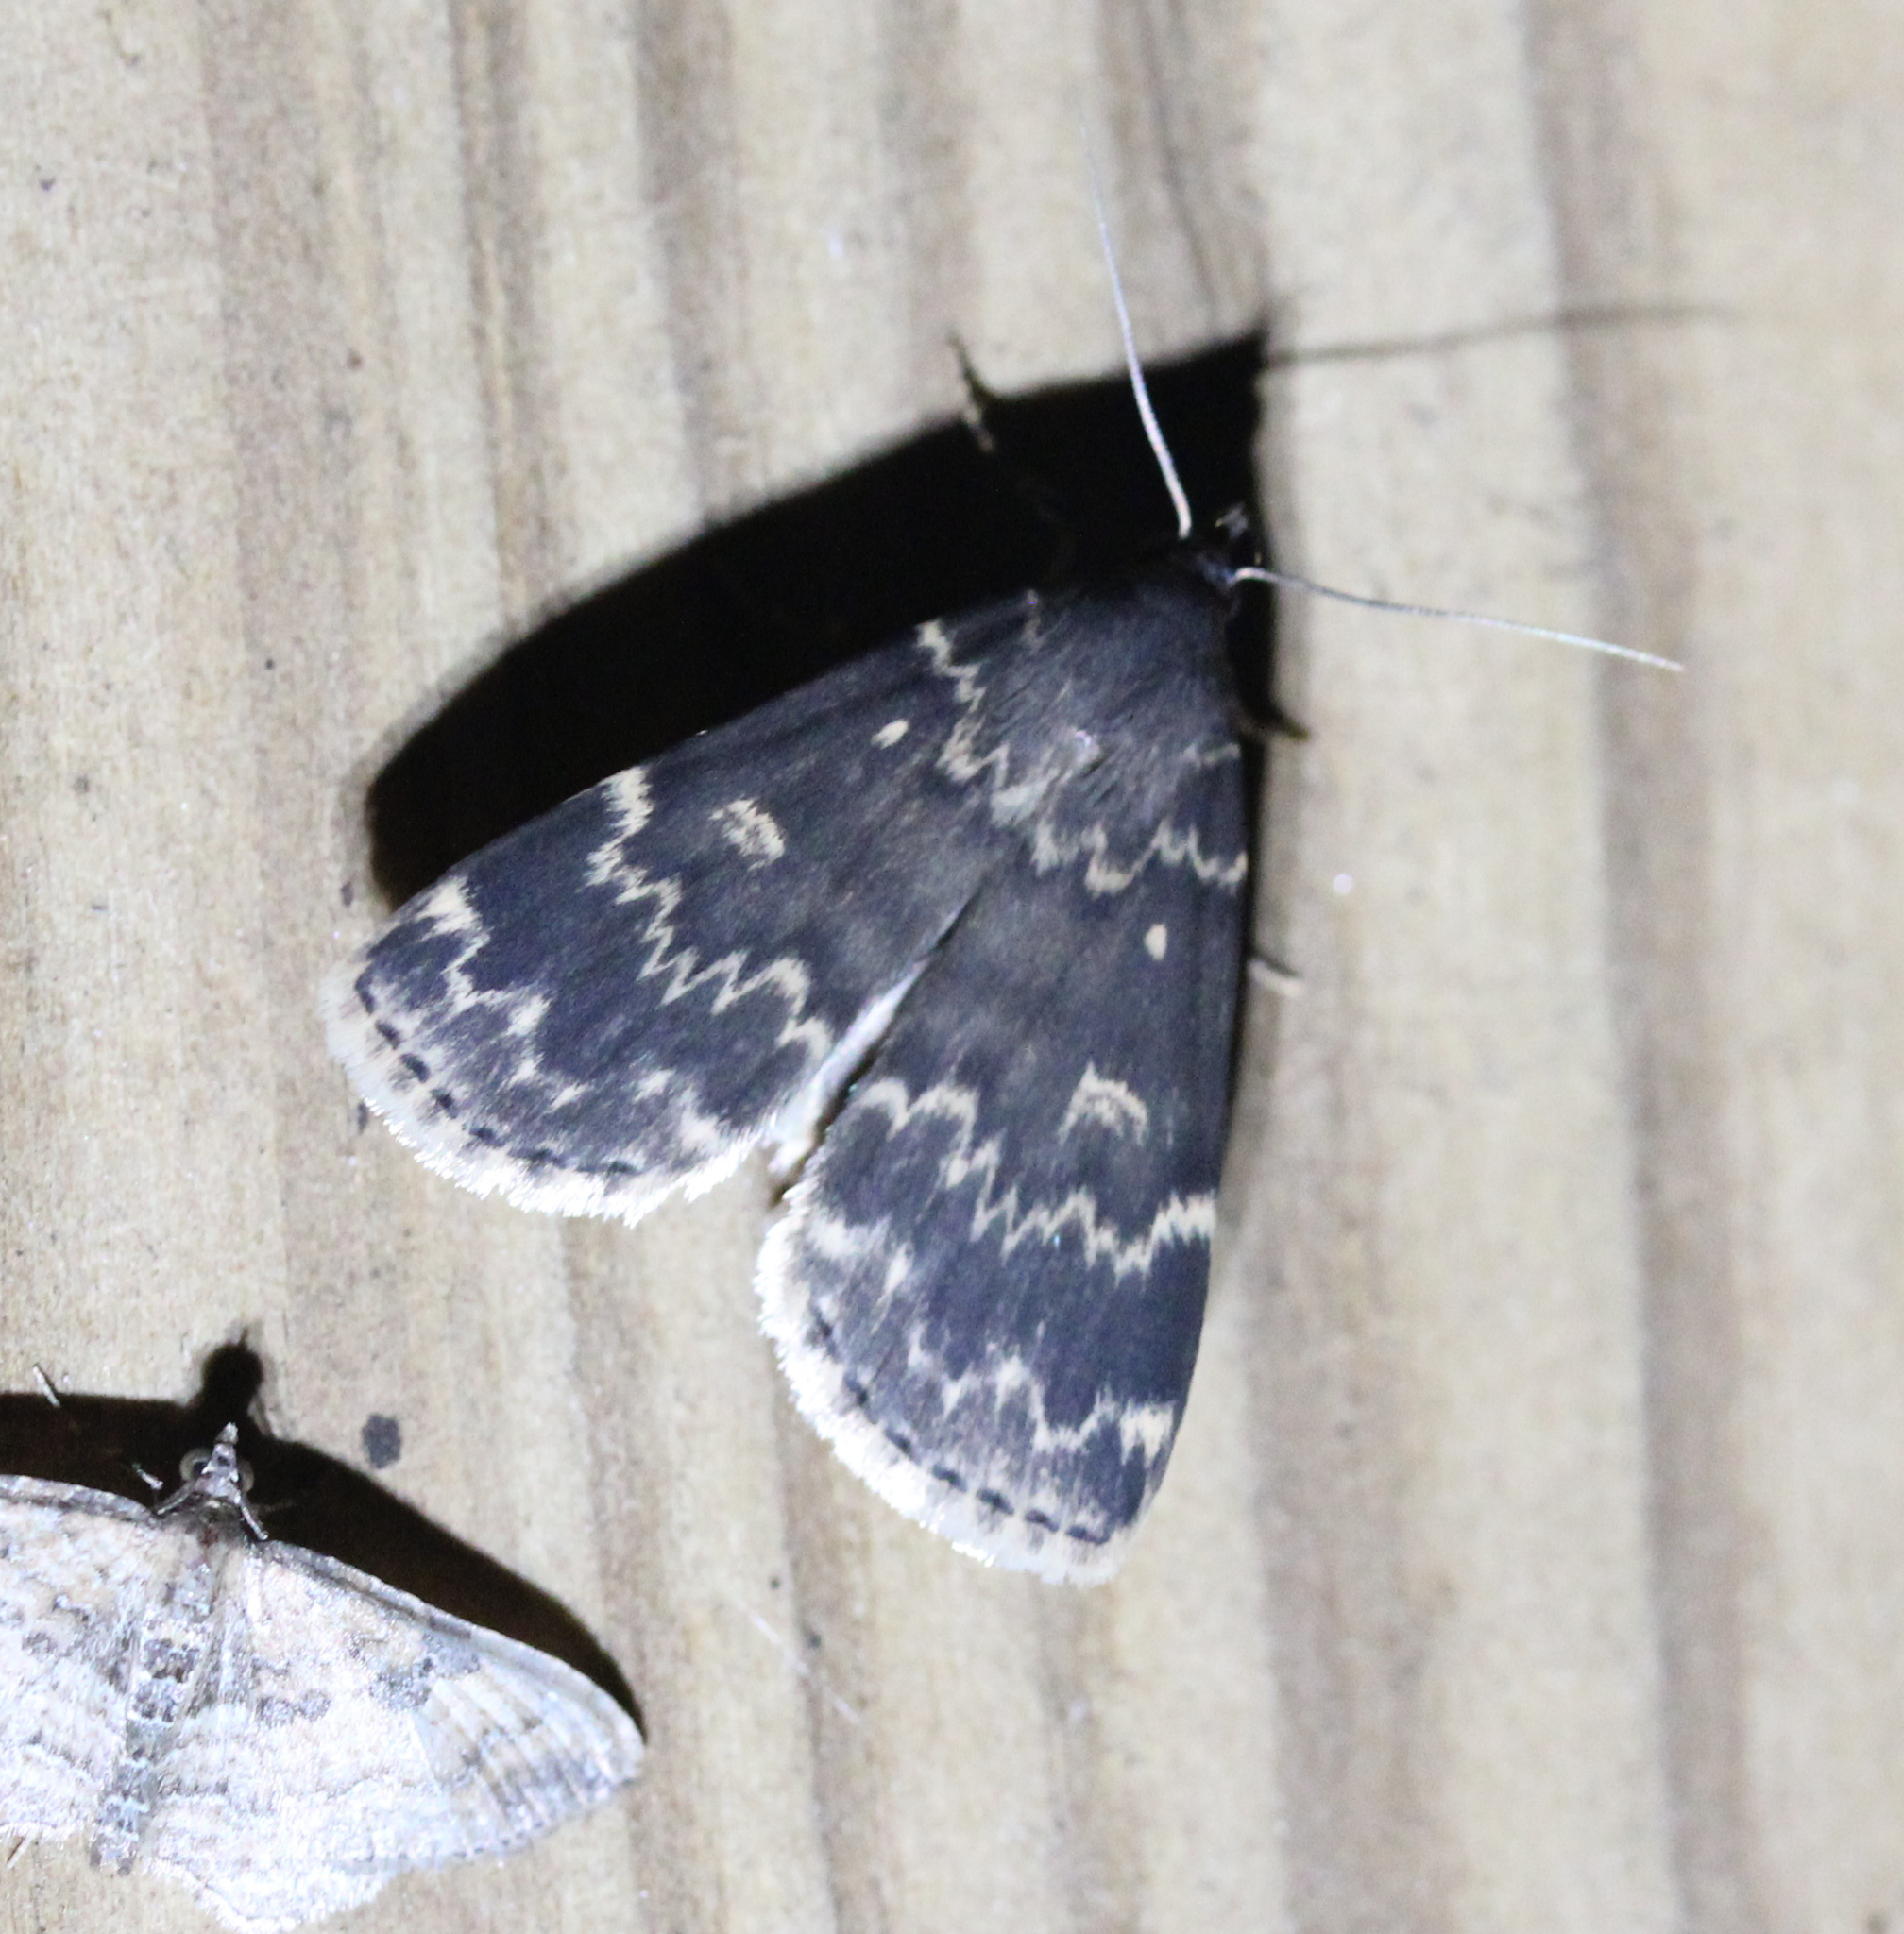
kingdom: Animalia
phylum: Arthropoda
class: Insecta
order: Lepidoptera
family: Erebidae
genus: Idia
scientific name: Idia lubricalis
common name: Twin-striped tabby
